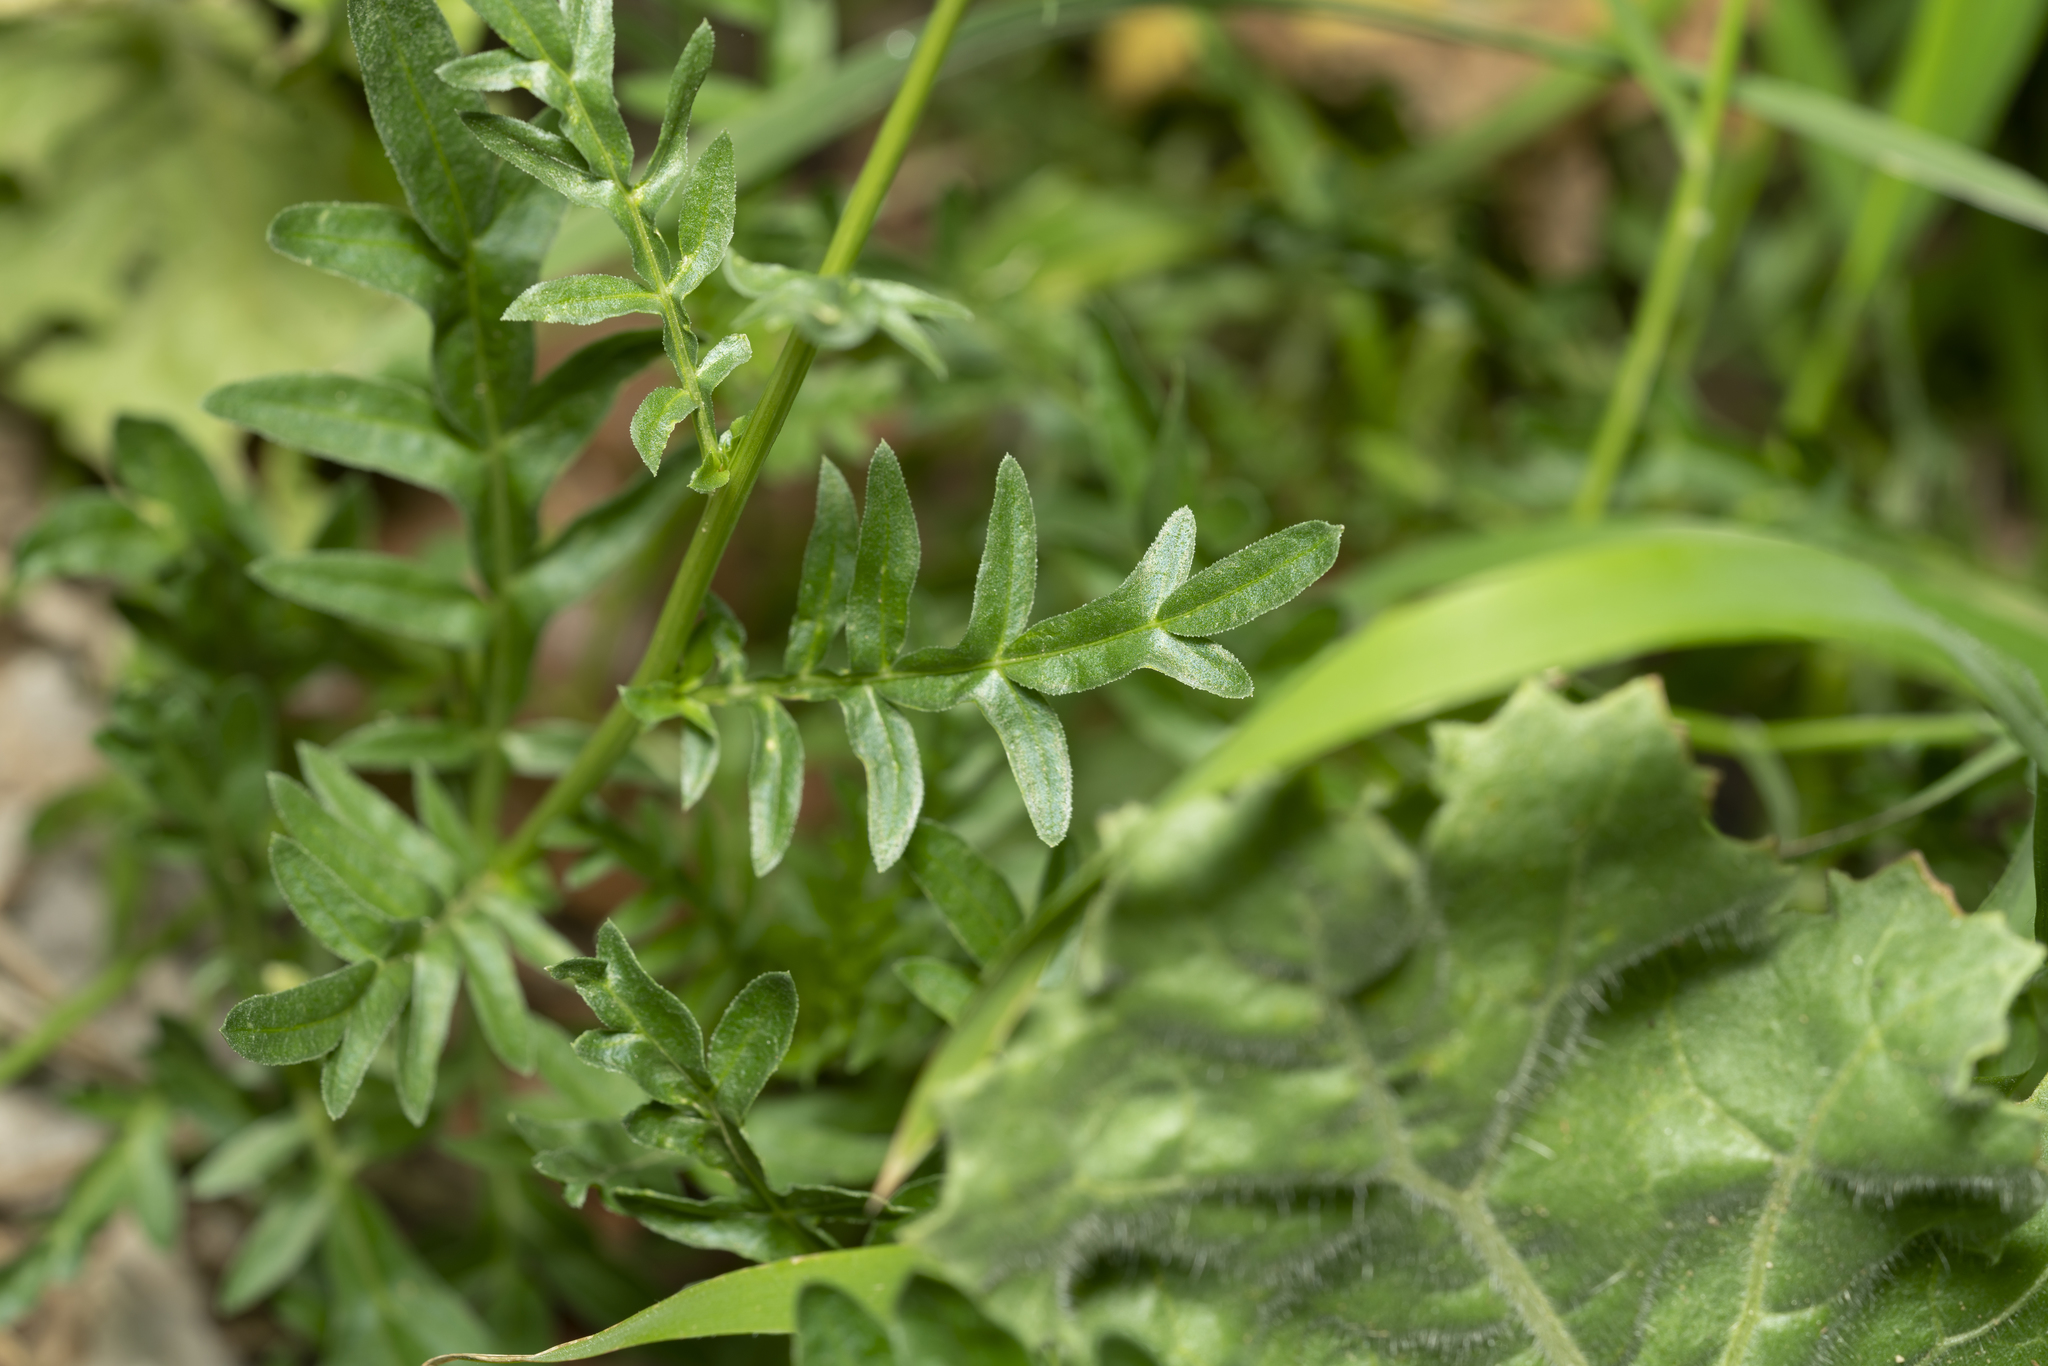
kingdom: Plantae
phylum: Tracheophyta
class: Magnoliopsida
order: Brassicales
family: Resedaceae
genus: Reseda
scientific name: Reseda alba
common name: White mignonette
